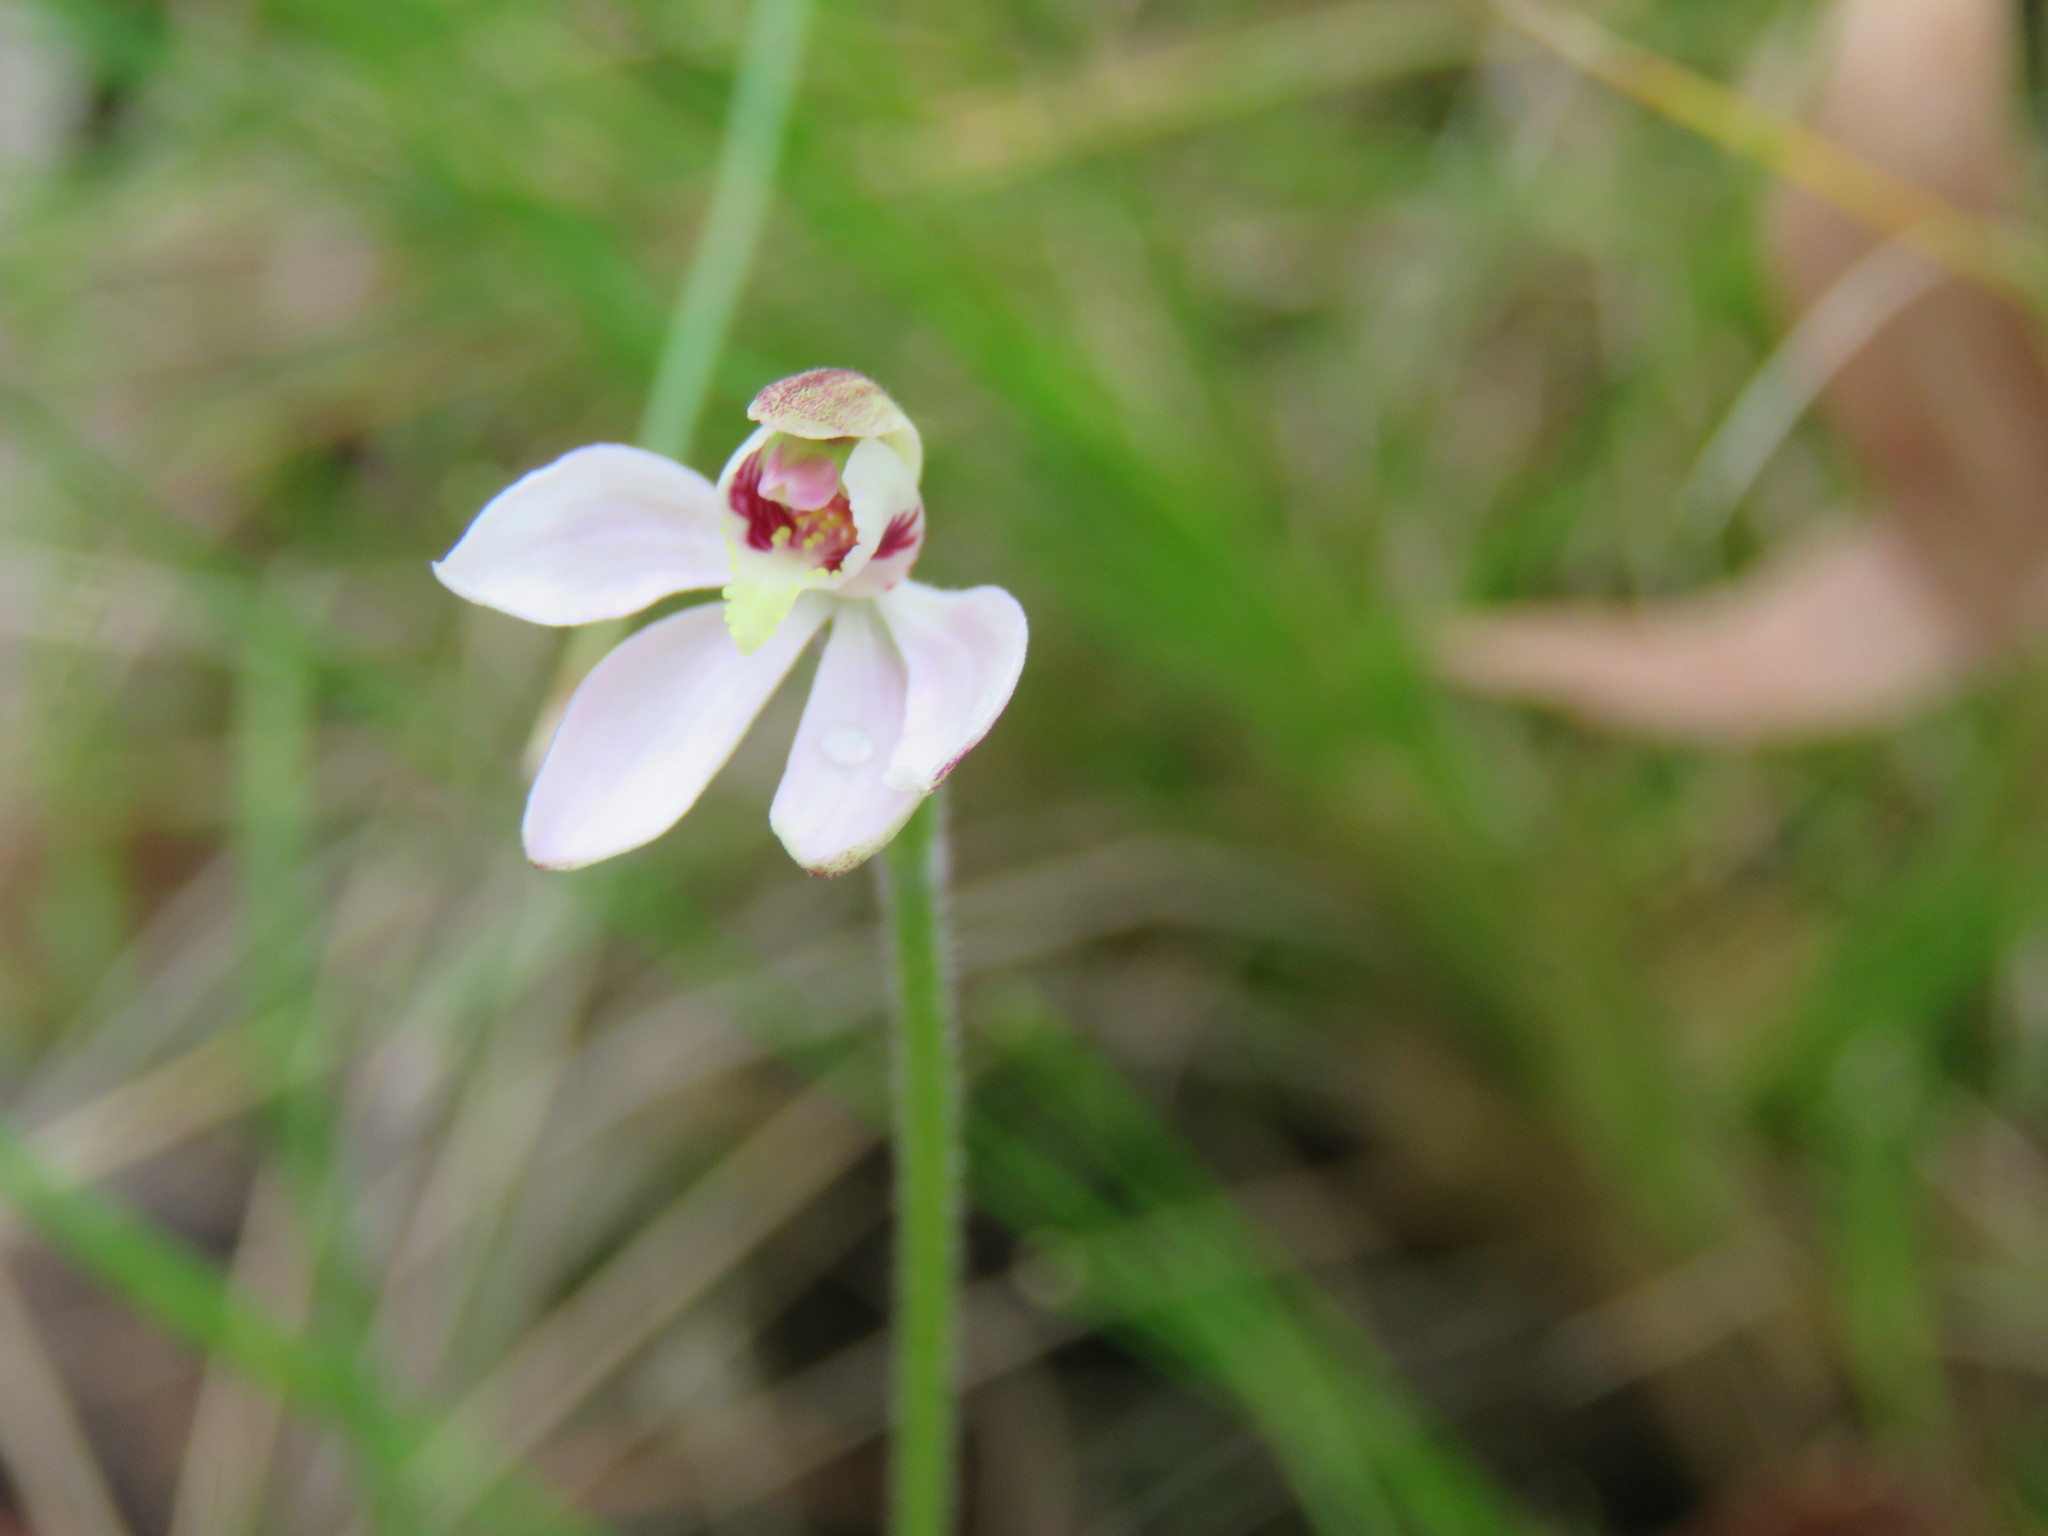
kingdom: Plantae
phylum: Tracheophyta
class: Liliopsida
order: Asparagales
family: Orchidaceae
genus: Caladenia
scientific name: Caladenia carnea
